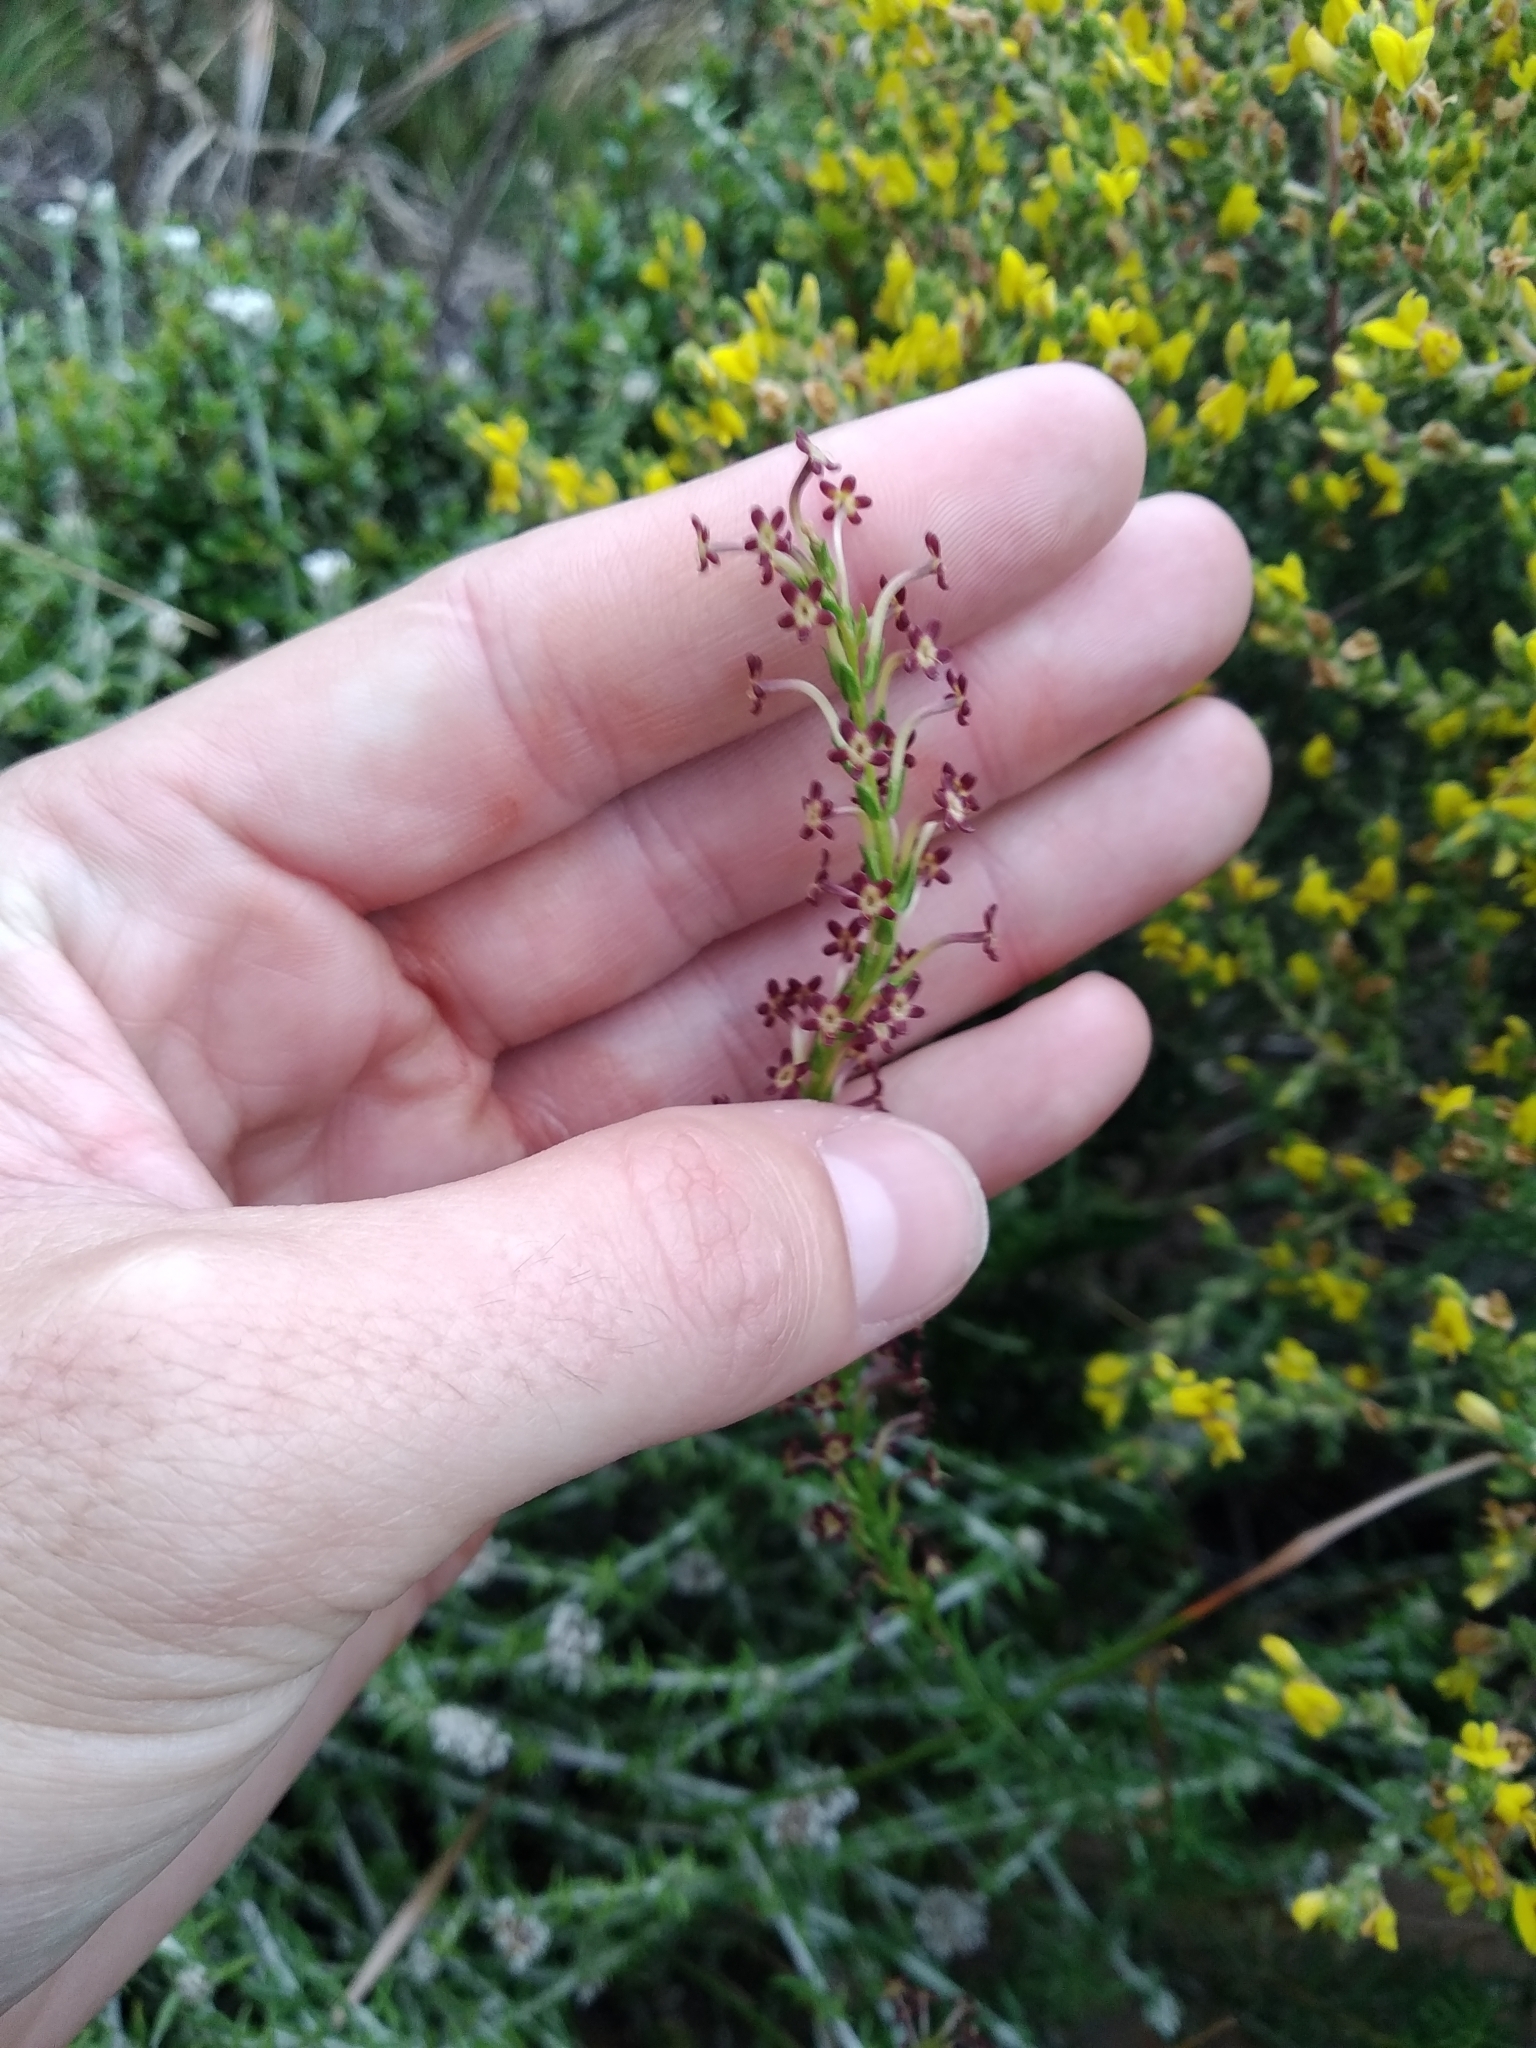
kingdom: Plantae
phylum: Tracheophyta
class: Magnoliopsida
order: Lamiales
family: Scrophulariaceae
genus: Microdon
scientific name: Microdon dubius
